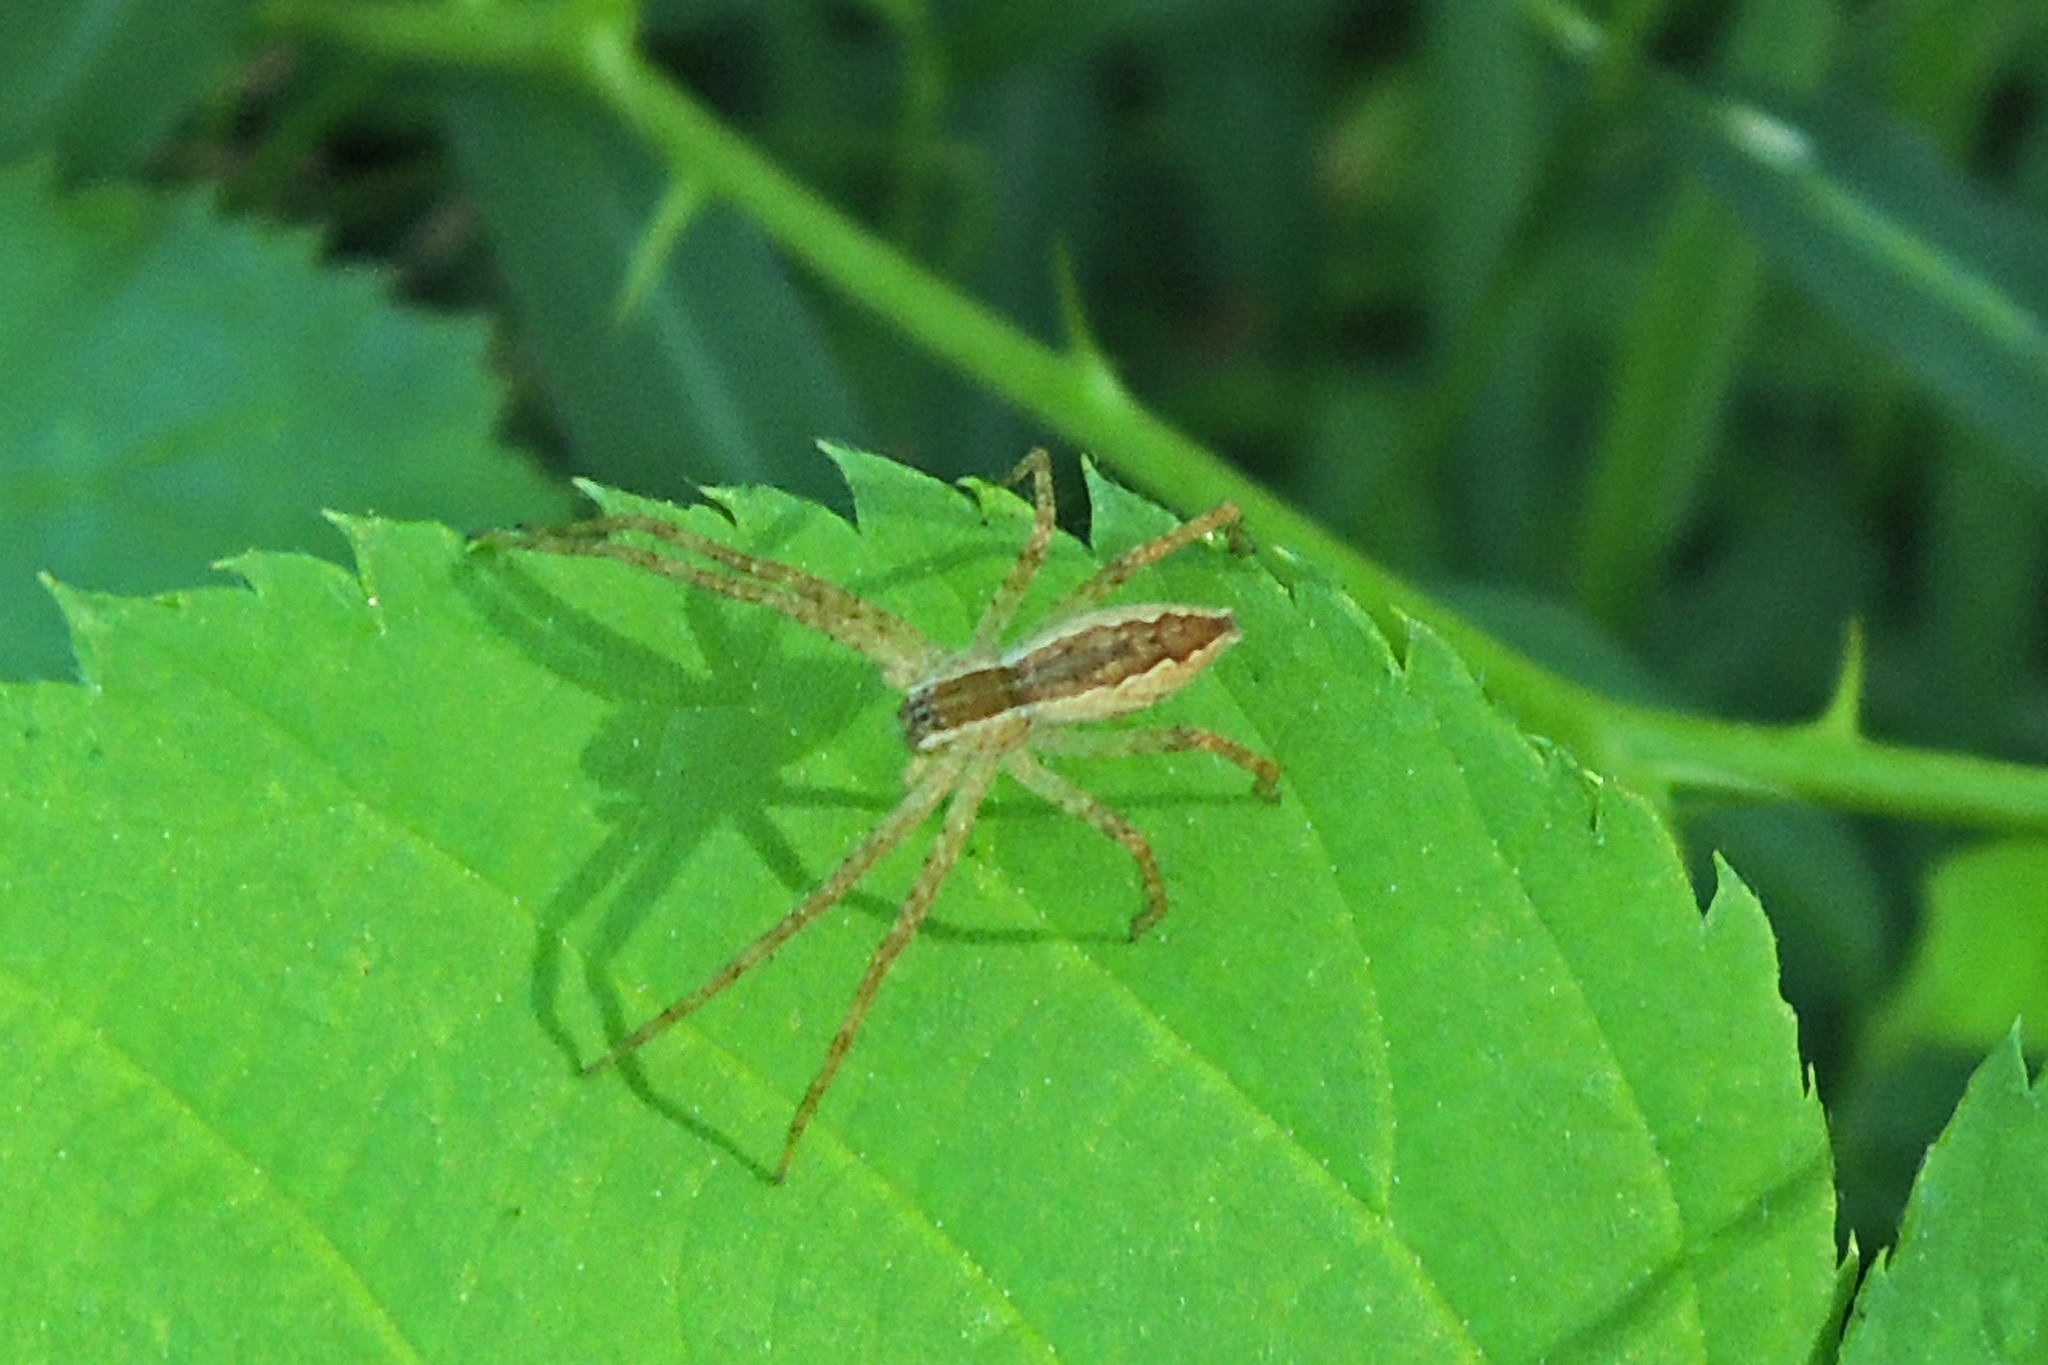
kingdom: Animalia
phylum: Arthropoda
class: Arachnida
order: Araneae
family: Pisauridae
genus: Pisaurina
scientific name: Pisaurina mira
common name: American nursery web spider
